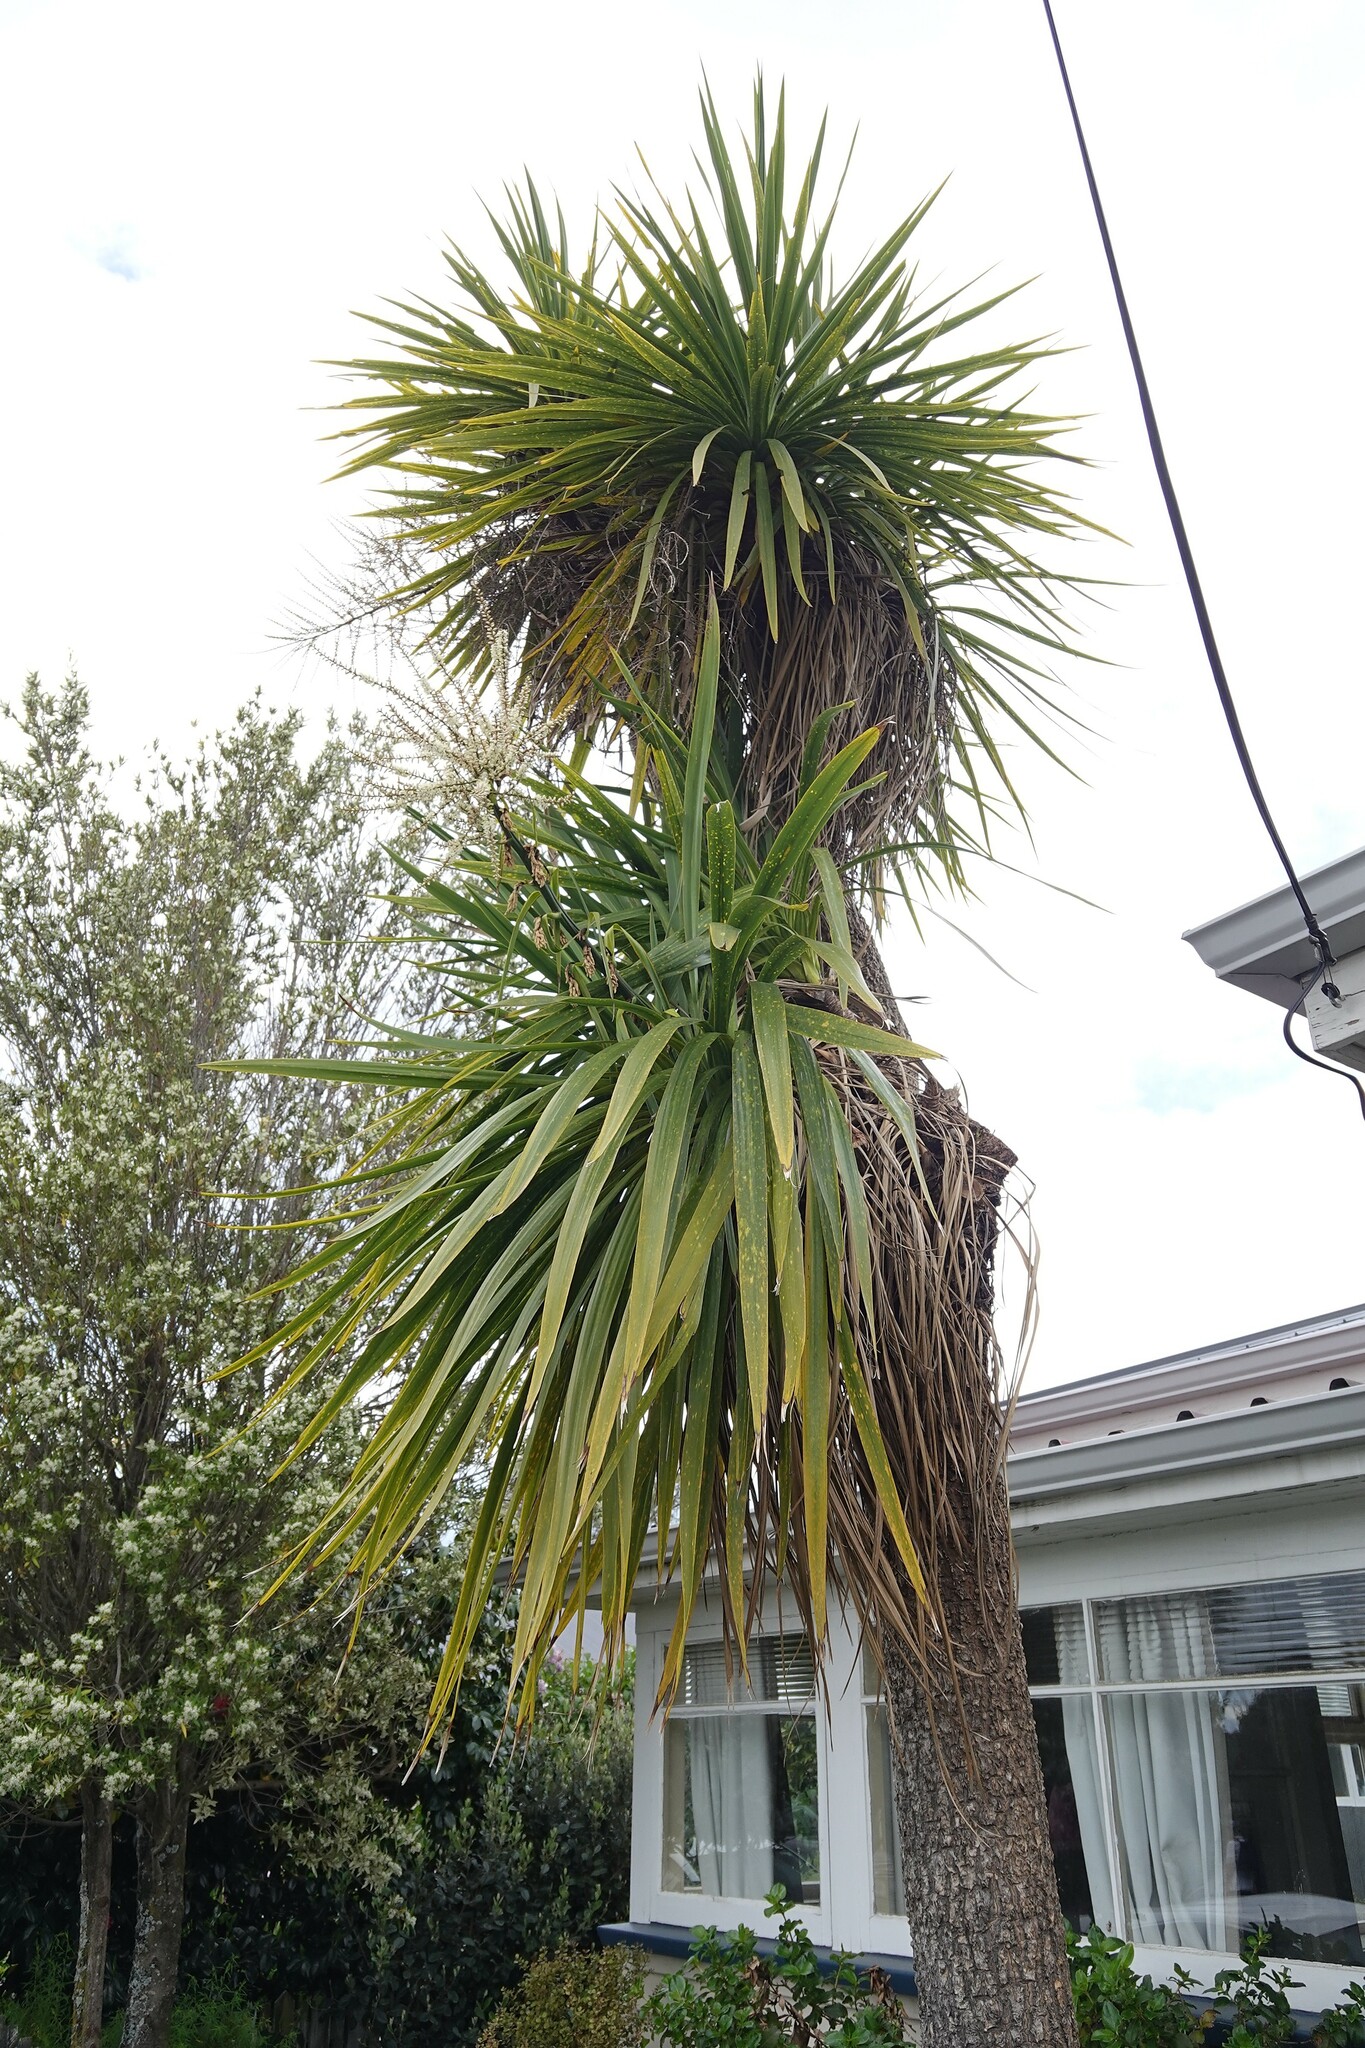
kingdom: Plantae
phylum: Tracheophyta
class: Liliopsida
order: Asparagales
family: Asparagaceae
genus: Cordyline
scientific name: Cordyline australis
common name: Cabbage-palm
